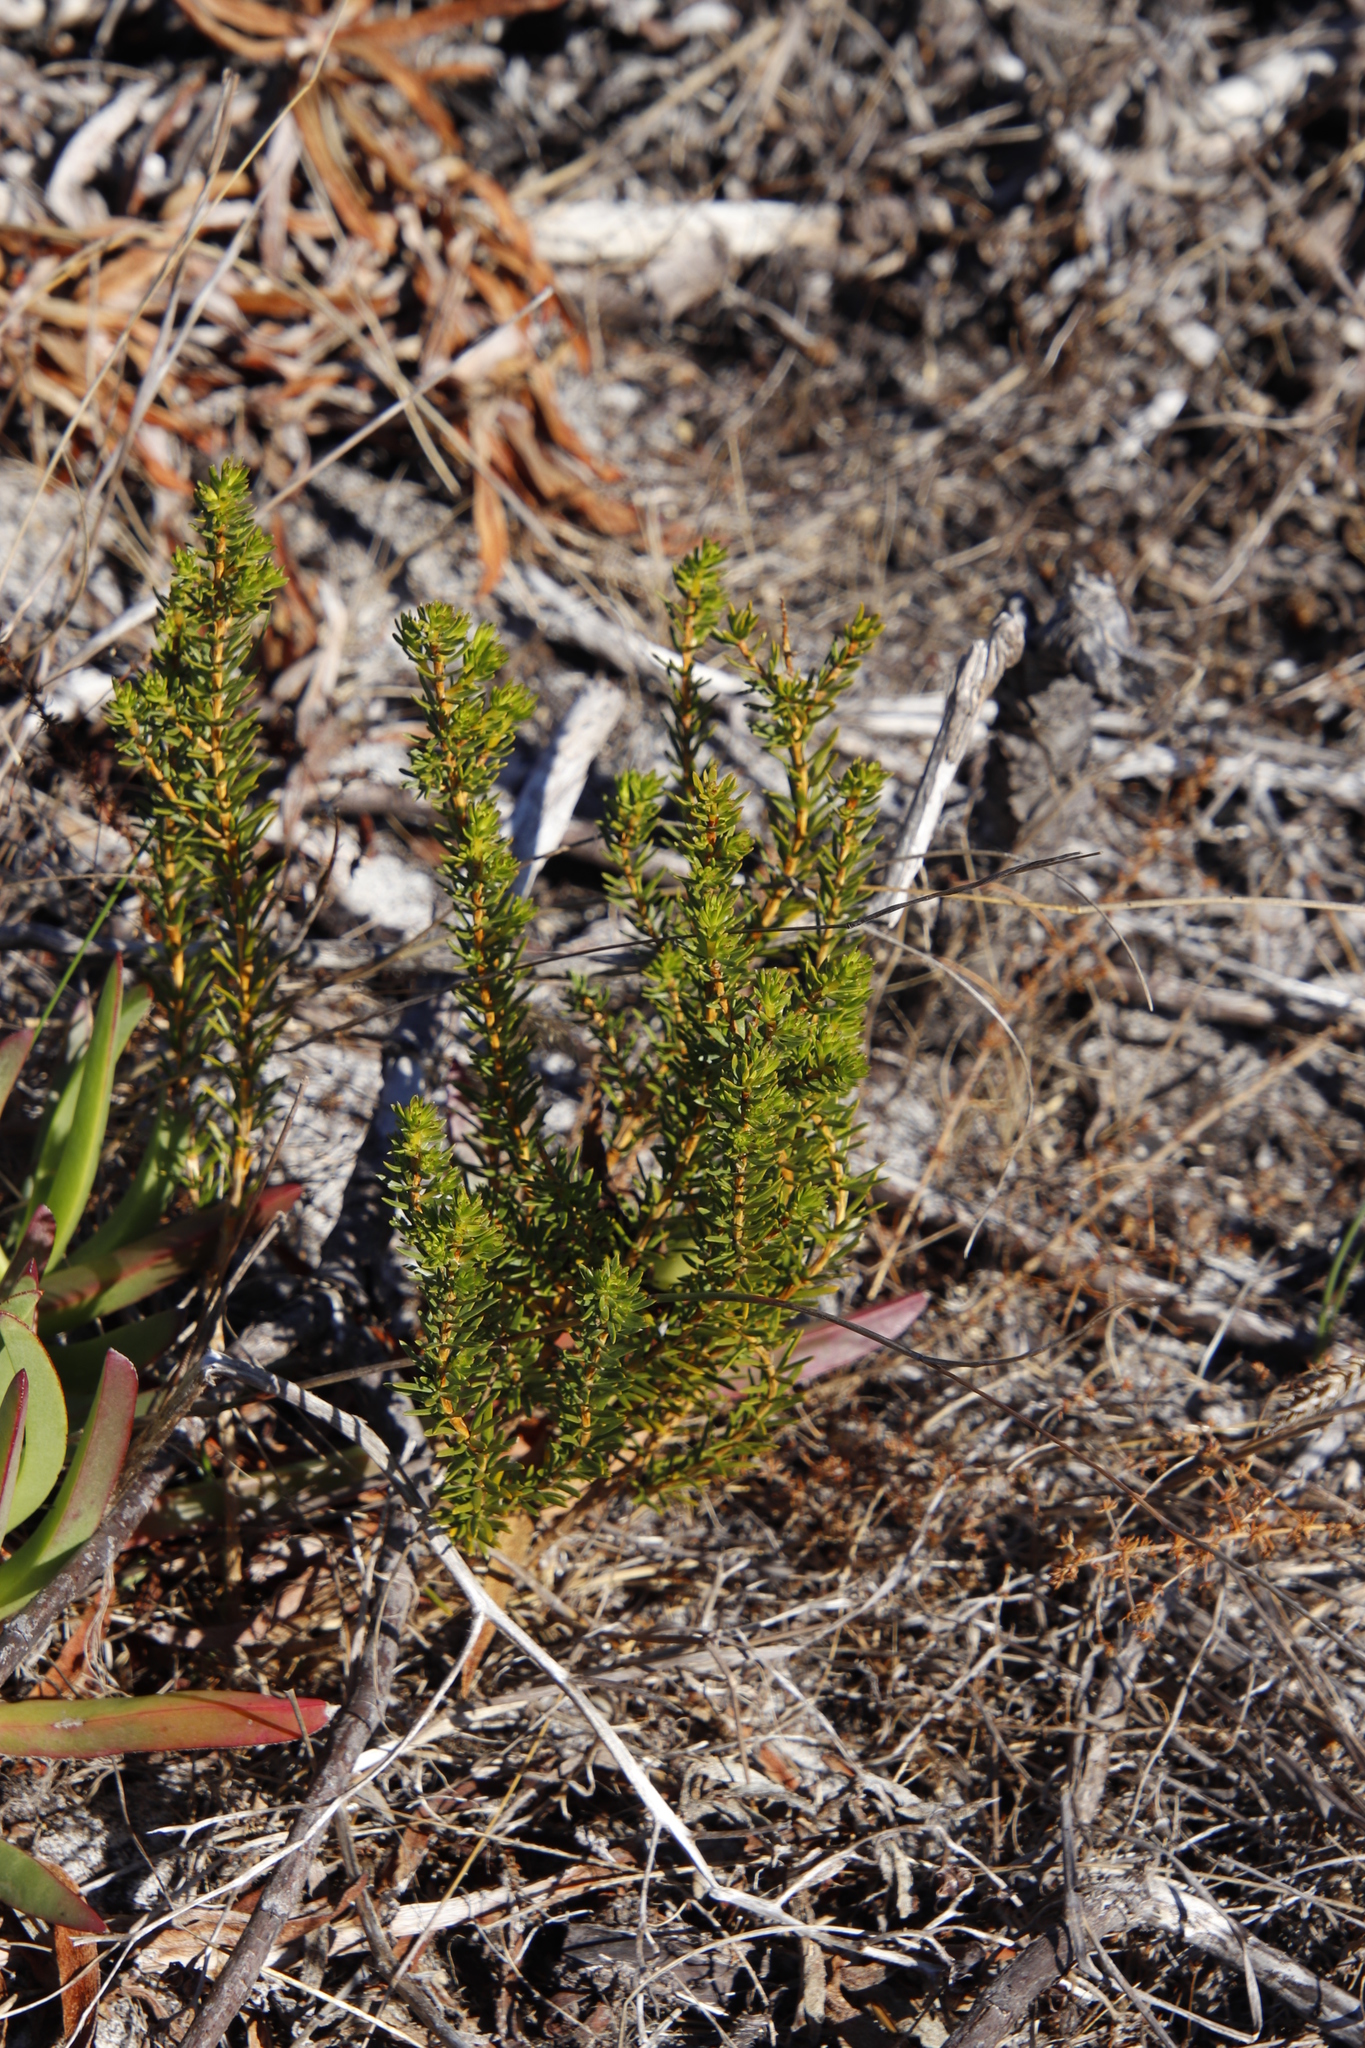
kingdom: Plantae
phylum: Tracheophyta
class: Magnoliopsida
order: Fabales
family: Fabaceae
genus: Aspalathus
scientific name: Aspalathus callosa
